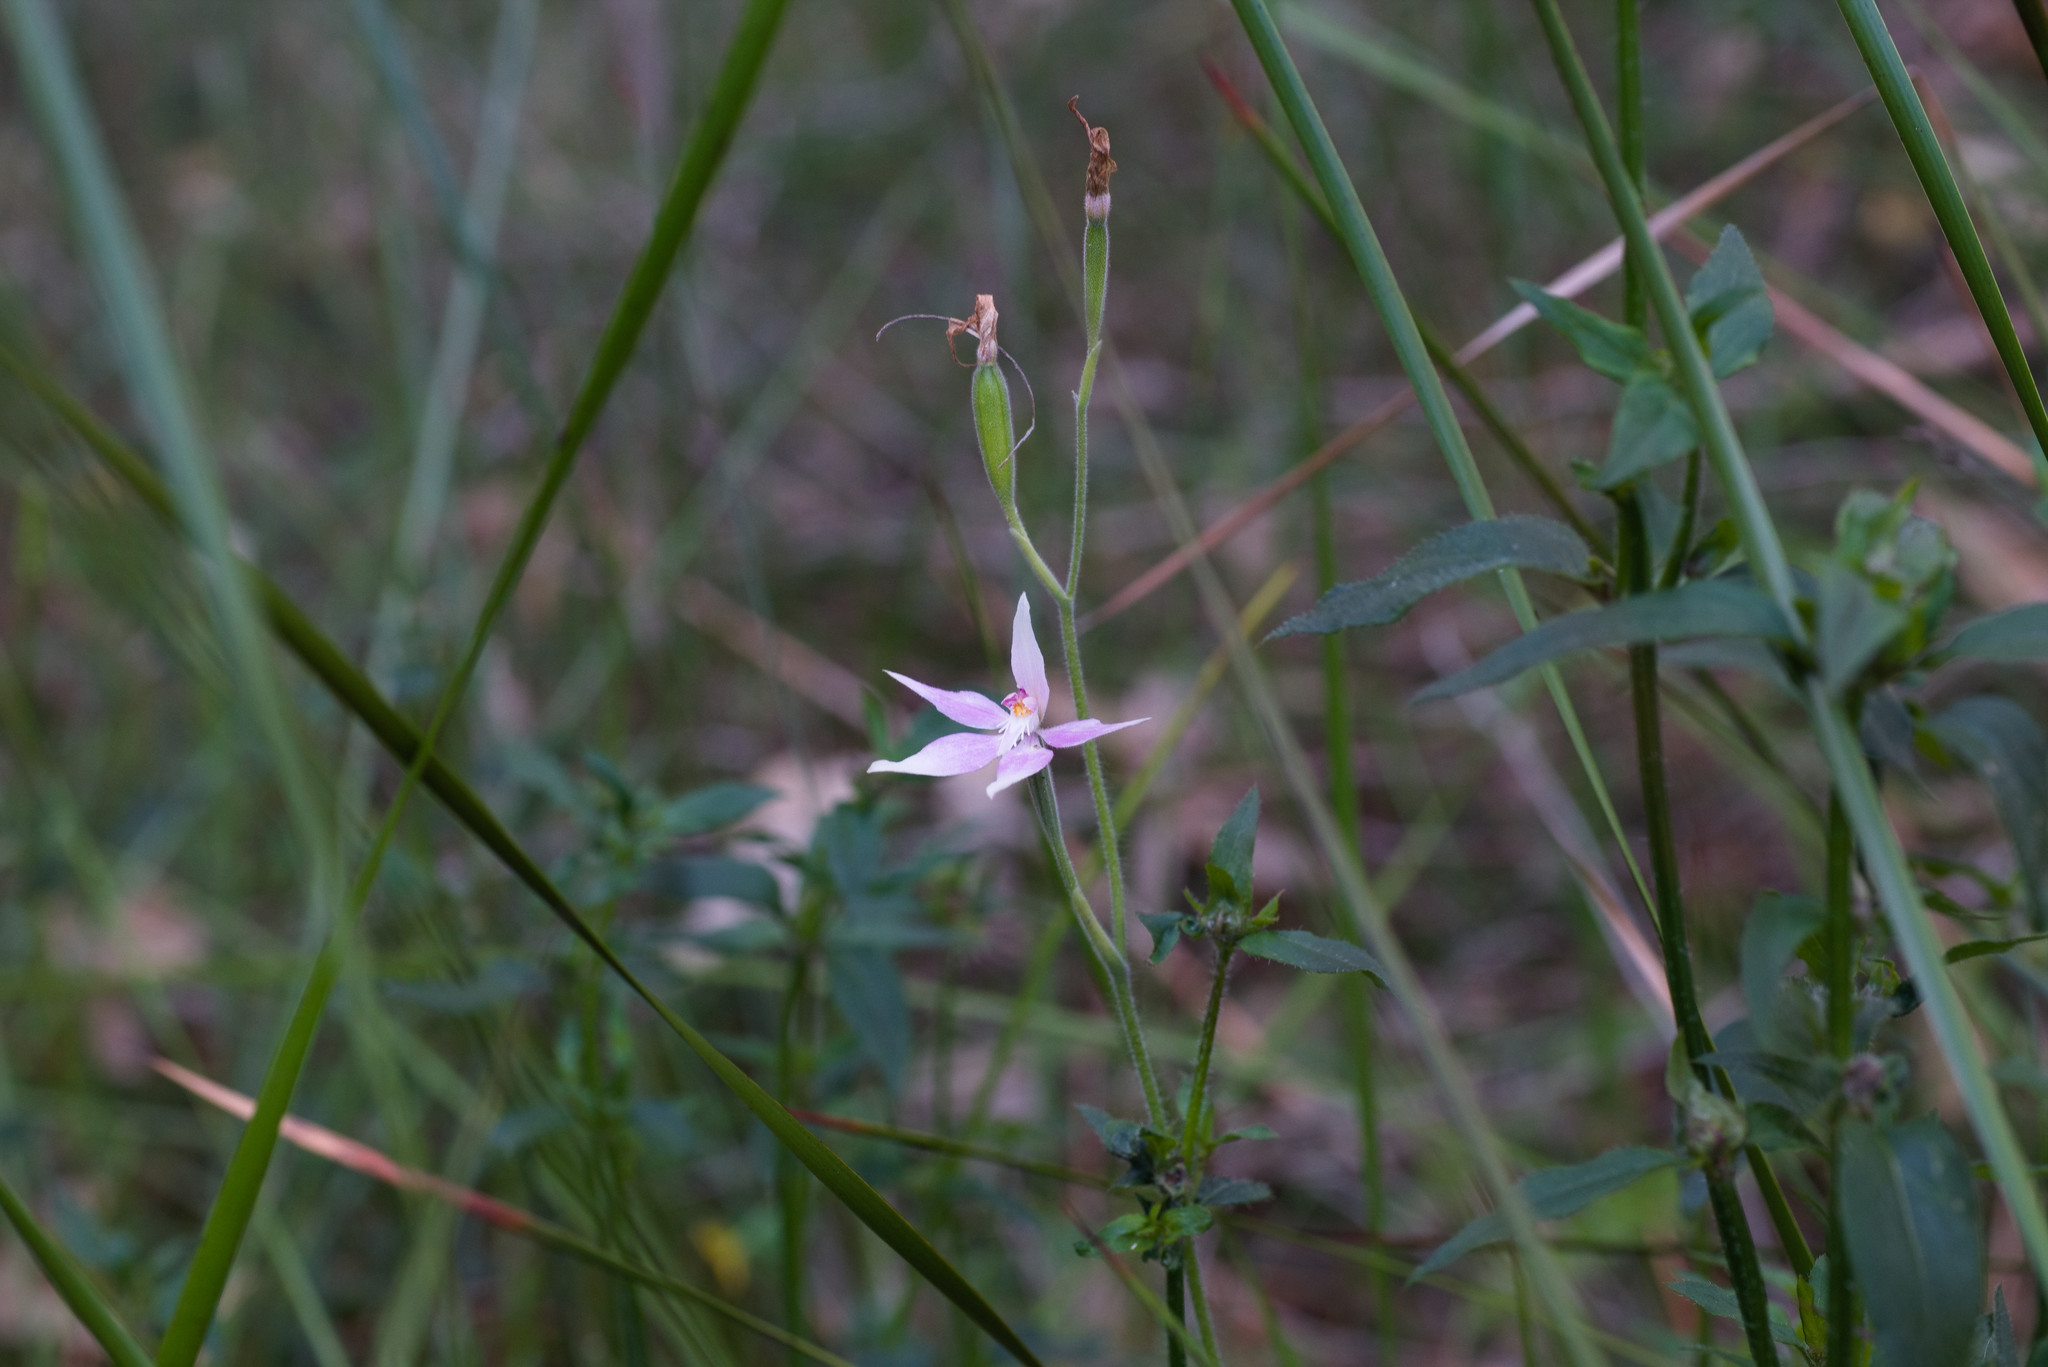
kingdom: Plantae
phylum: Tracheophyta
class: Liliopsida
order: Asparagales
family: Orchidaceae
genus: Caladenia
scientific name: Caladenia latifolia
